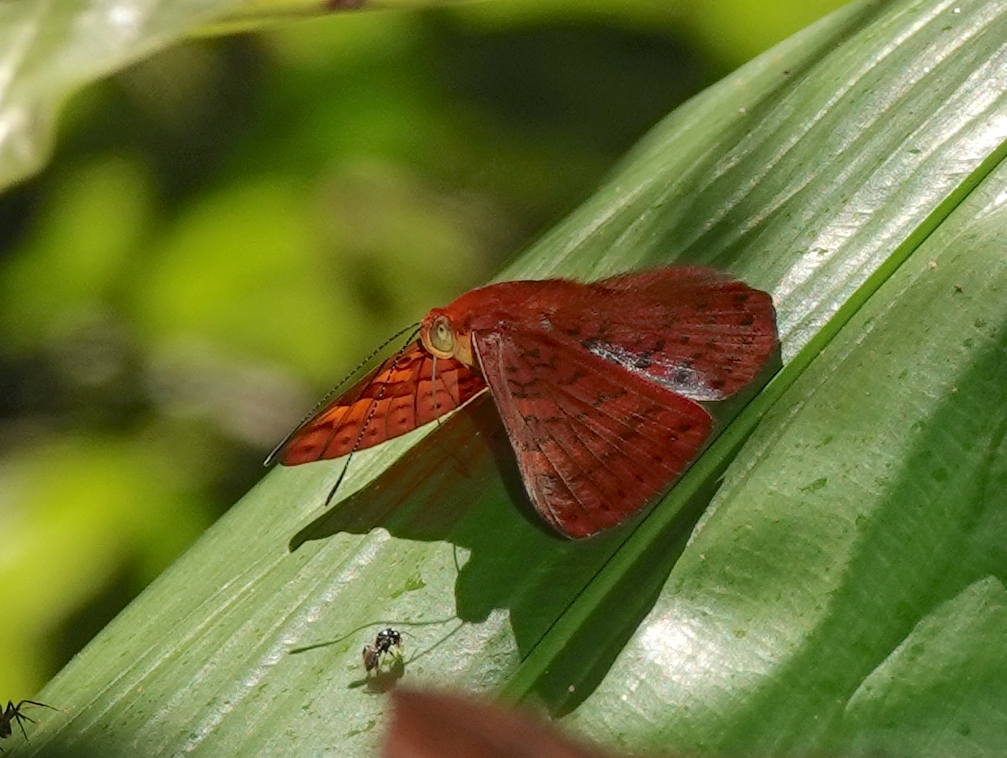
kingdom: Animalia
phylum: Arthropoda
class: Insecta
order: Lepidoptera
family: Lycaenidae
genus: Emesis
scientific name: Emesis mandana
